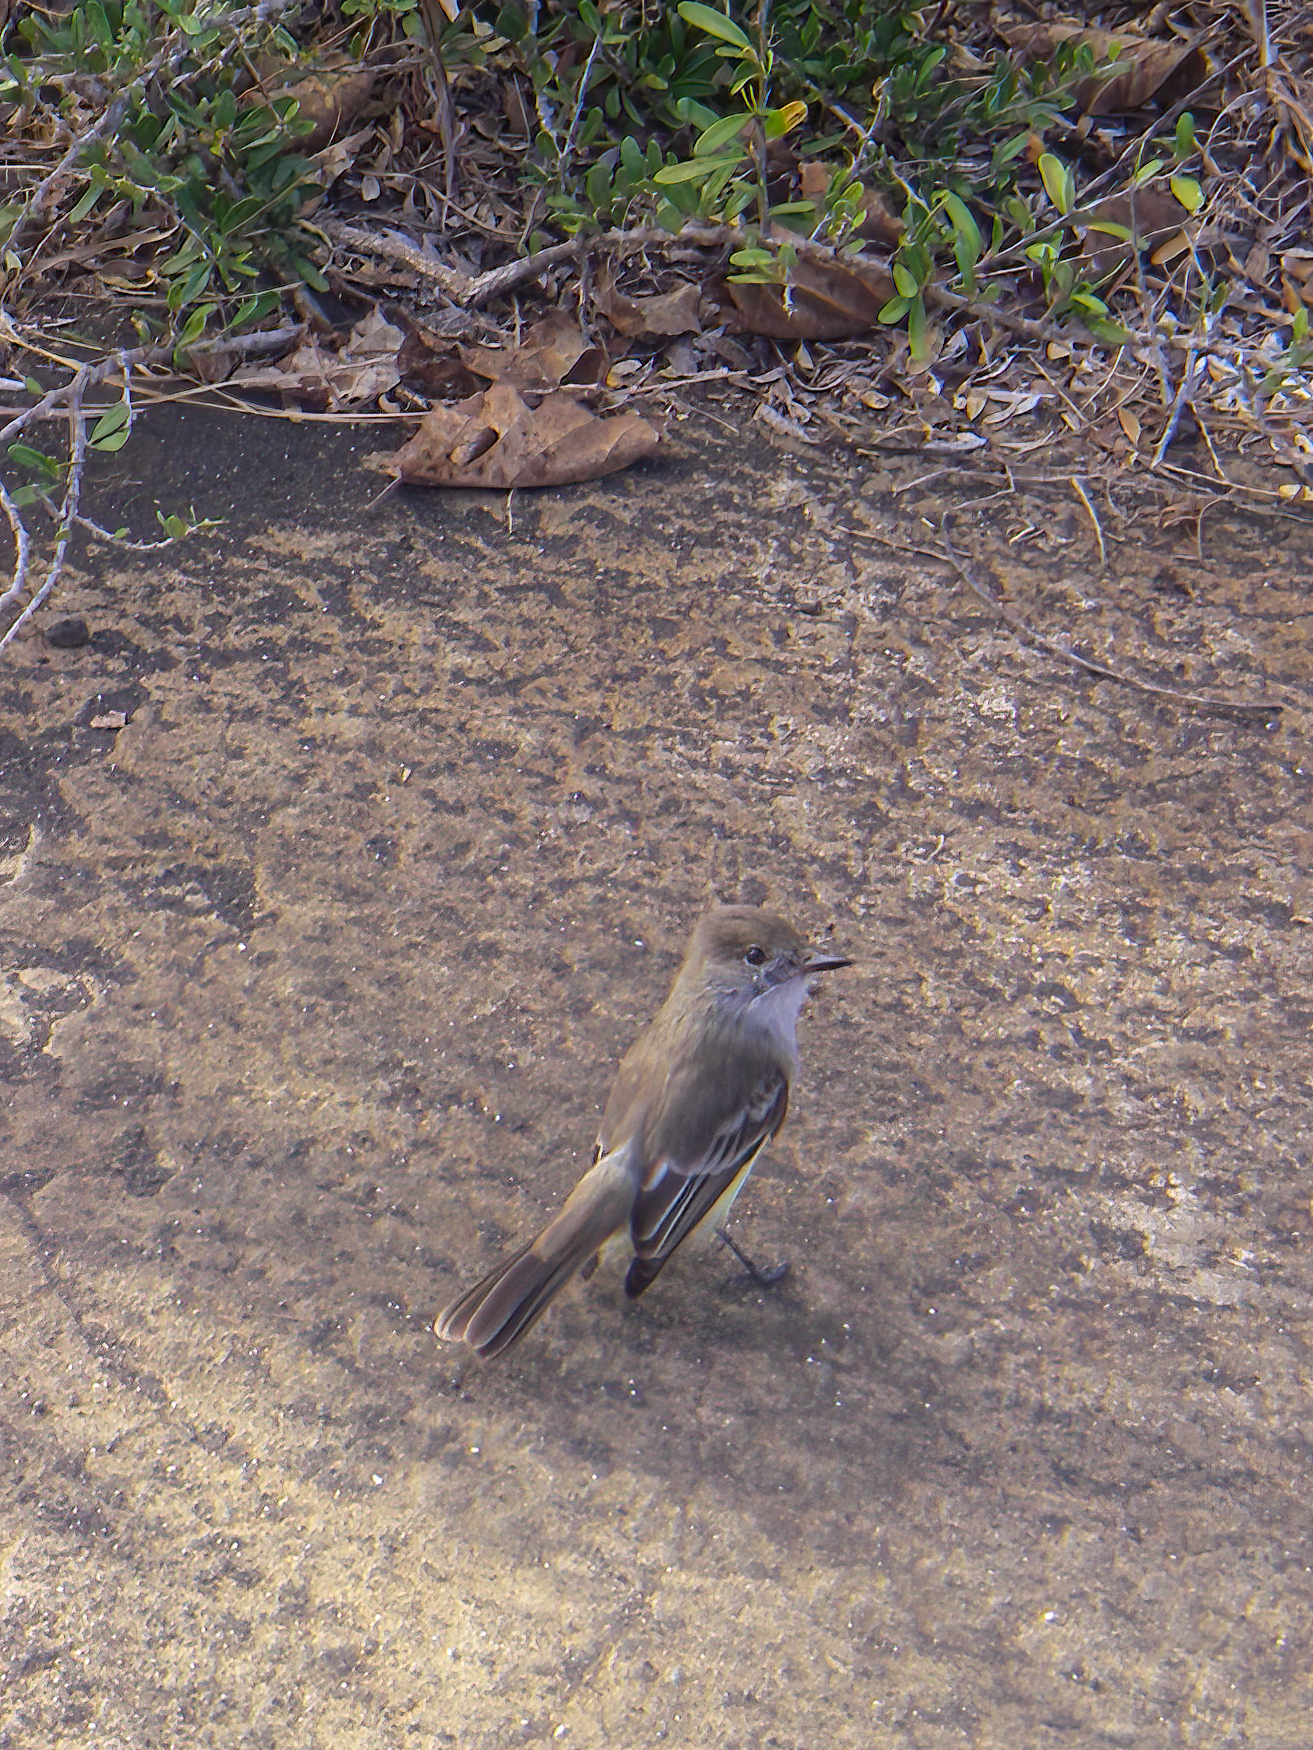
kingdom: Animalia
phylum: Chordata
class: Aves
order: Passeriformes
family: Tyrannidae
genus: Myiarchus
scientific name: Myiarchus magnirostris
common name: Galapagos flycatcher
